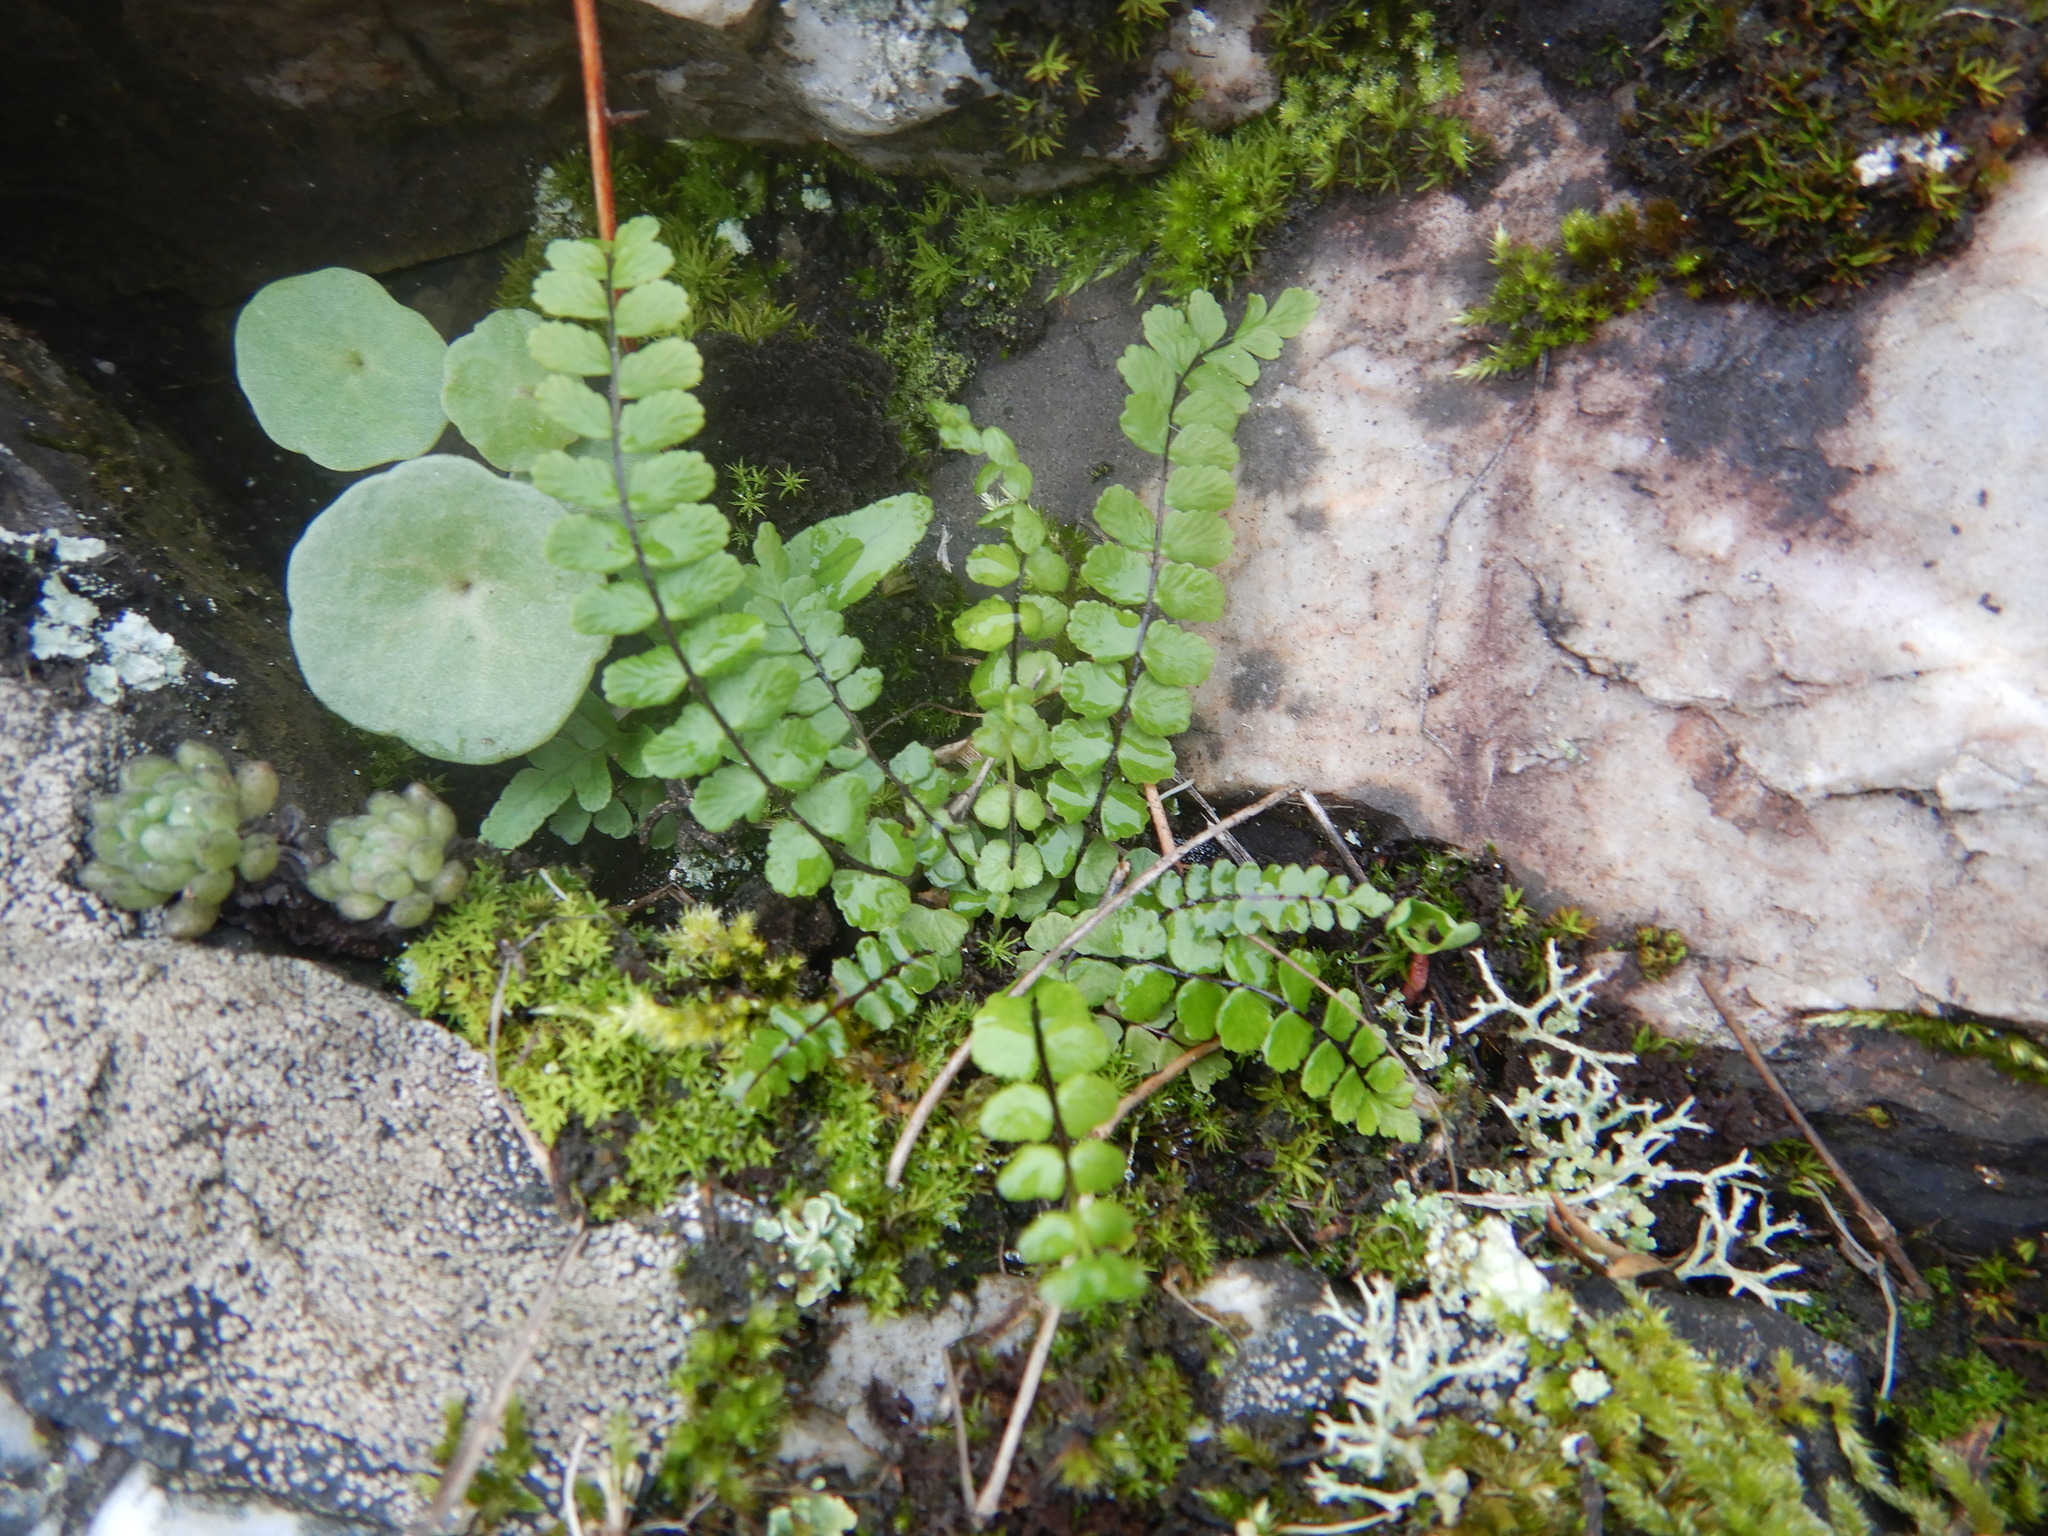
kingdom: Plantae
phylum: Tracheophyta
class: Polypodiopsida
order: Polypodiales
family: Aspleniaceae
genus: Asplenium
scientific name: Asplenium trichomanes
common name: Maidenhair spleenwort
